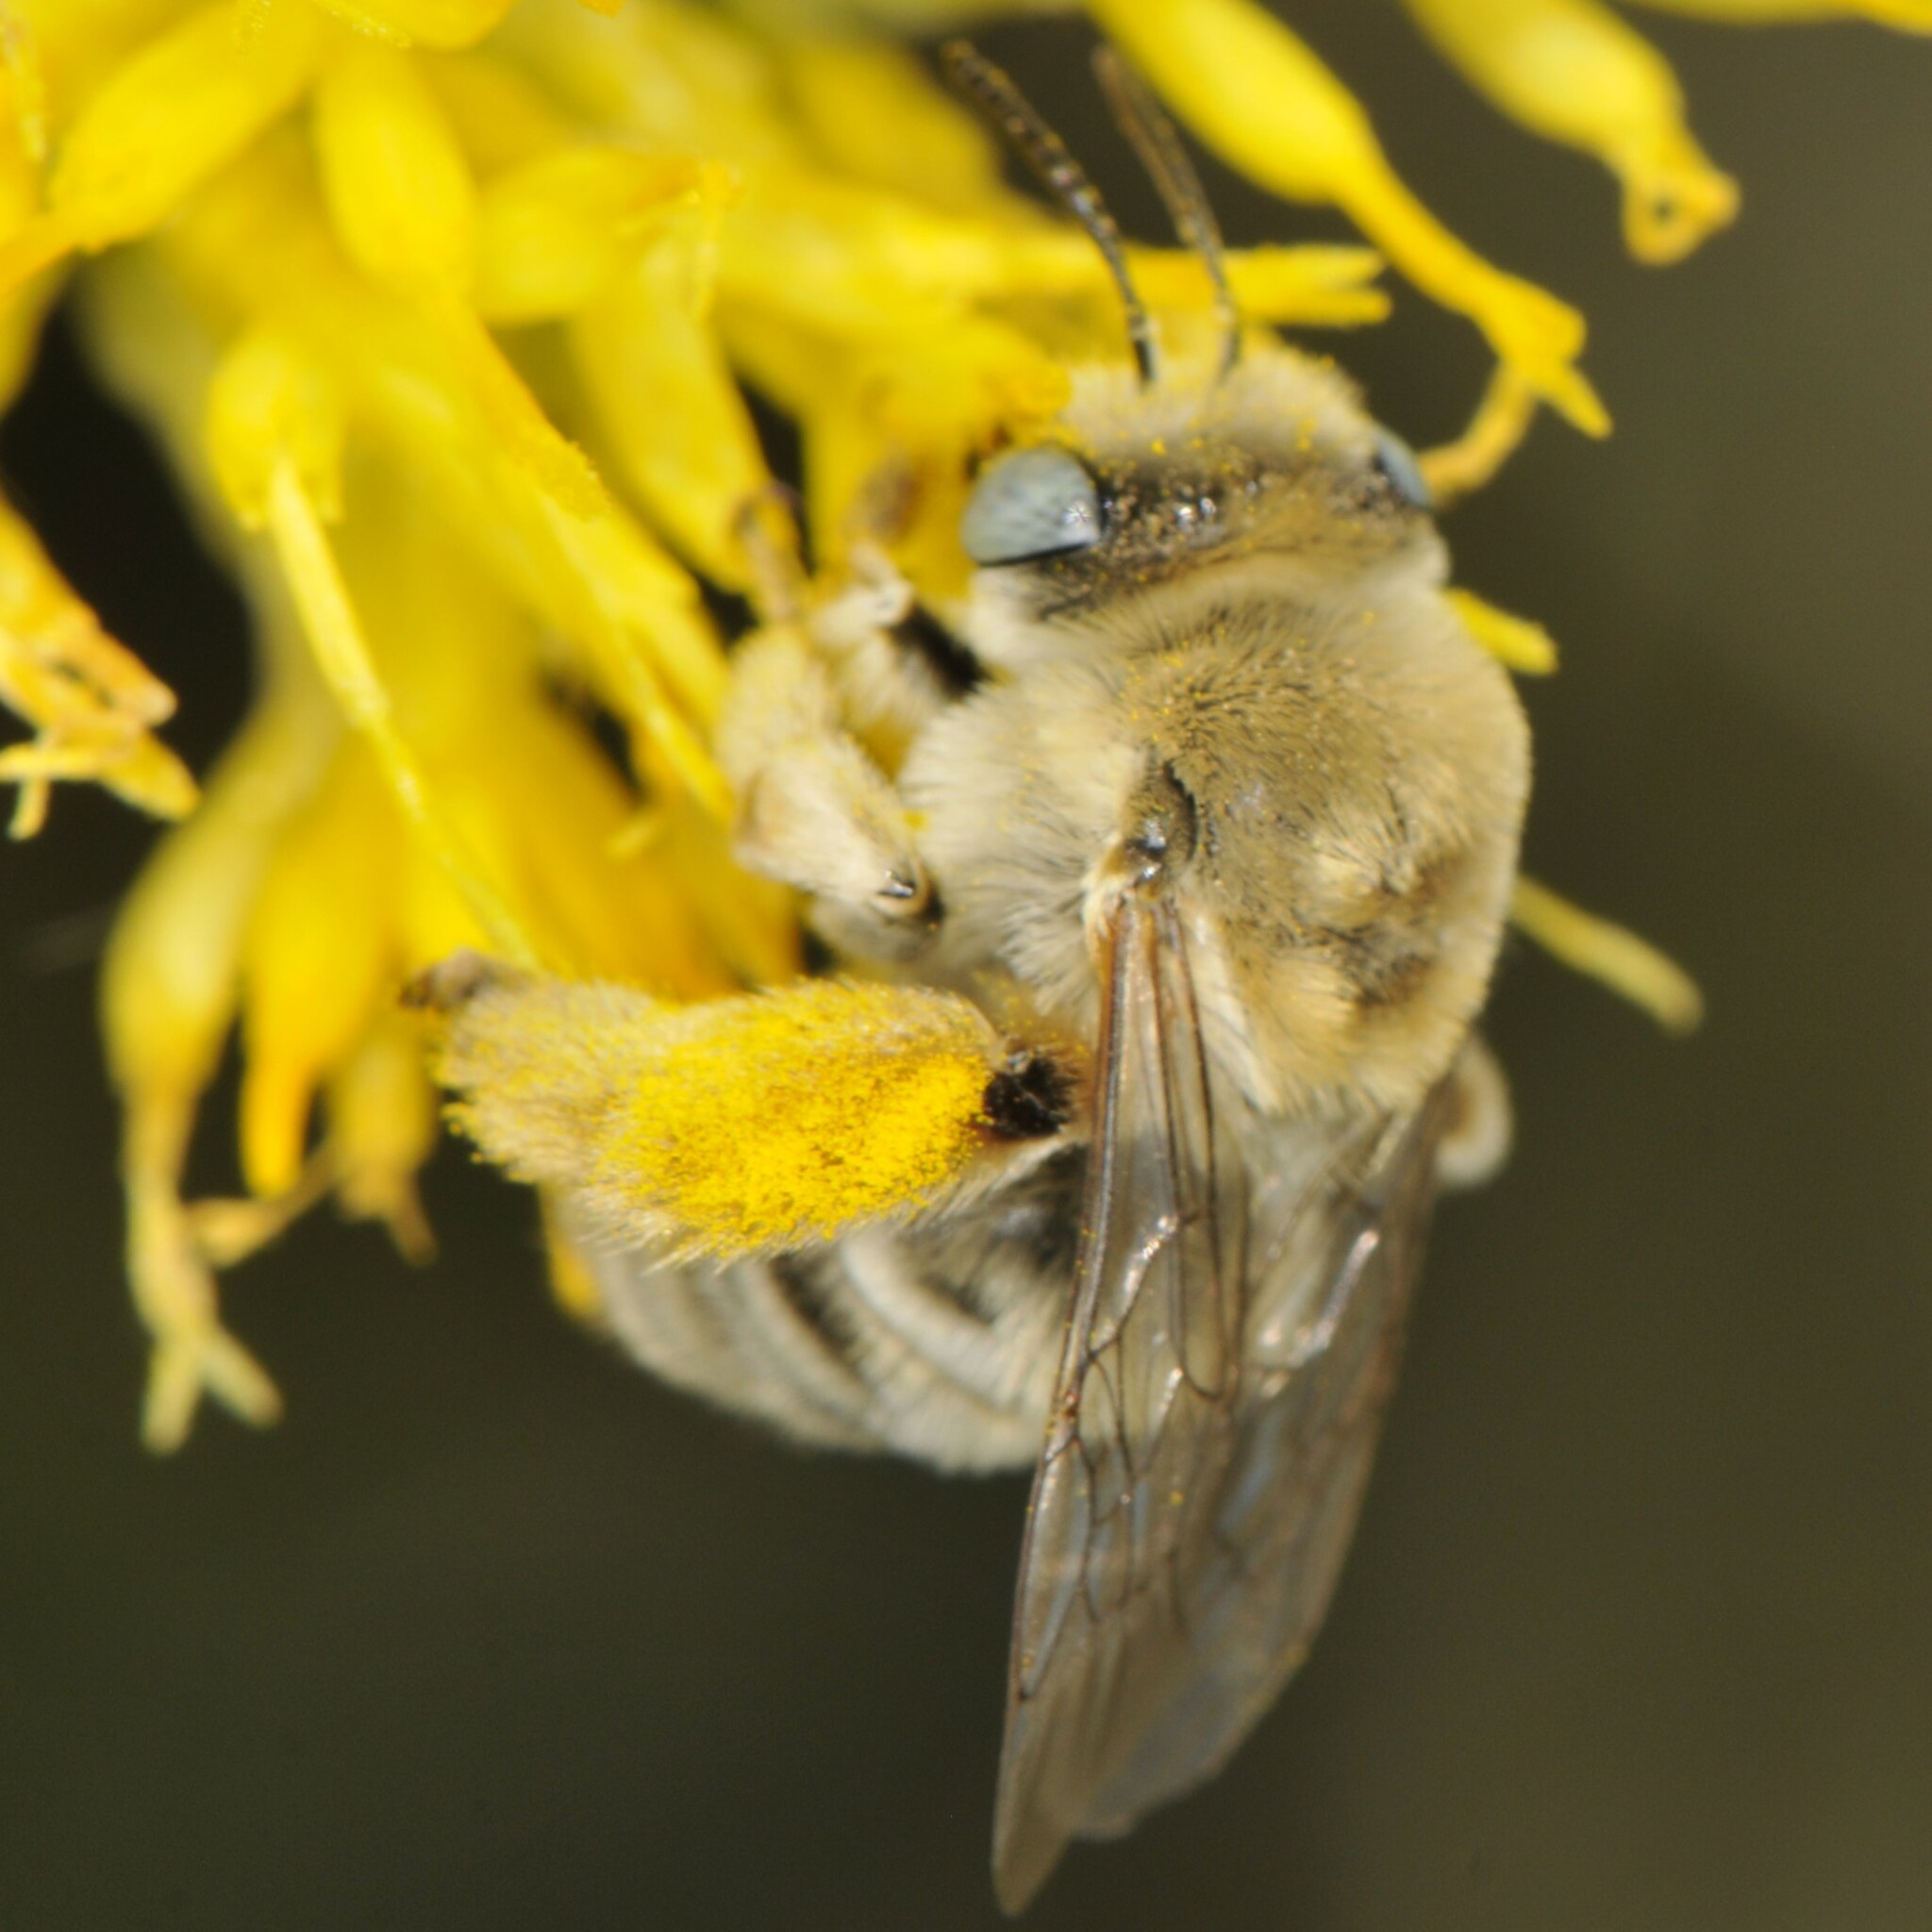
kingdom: Animalia
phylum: Arthropoda
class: Insecta
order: Hymenoptera
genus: Eumelissodes
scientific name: Eumelissodes
